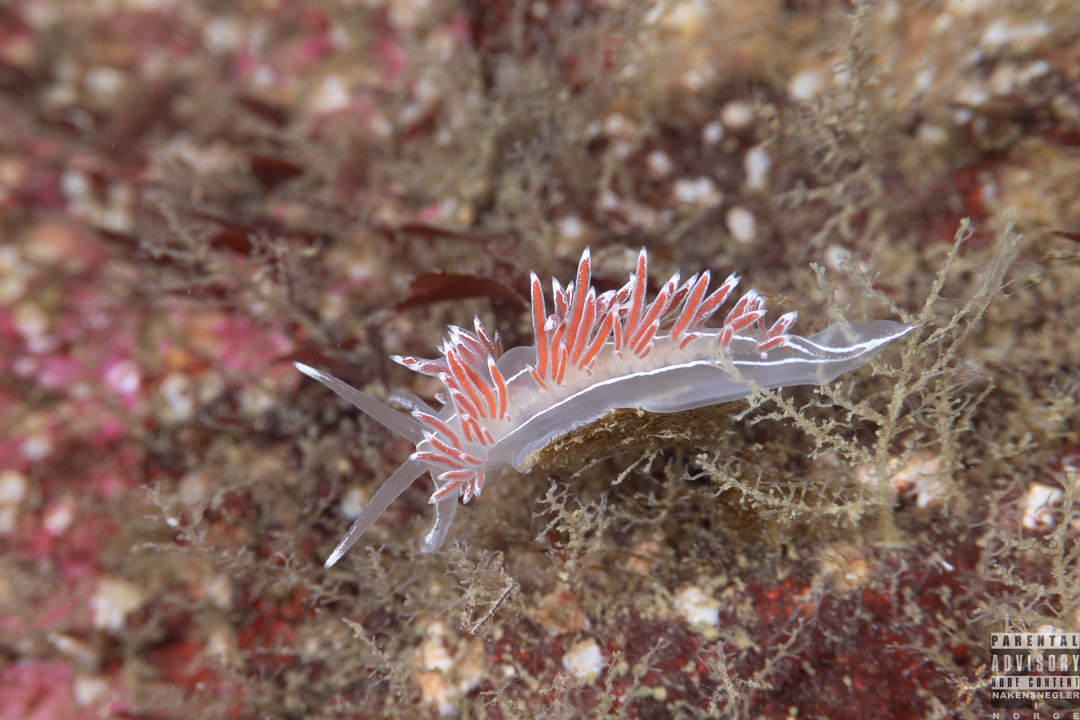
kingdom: Animalia
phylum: Mollusca
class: Gastropoda
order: Nudibranchia
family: Coryphellidae
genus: Coryphella
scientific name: Coryphella lineata
